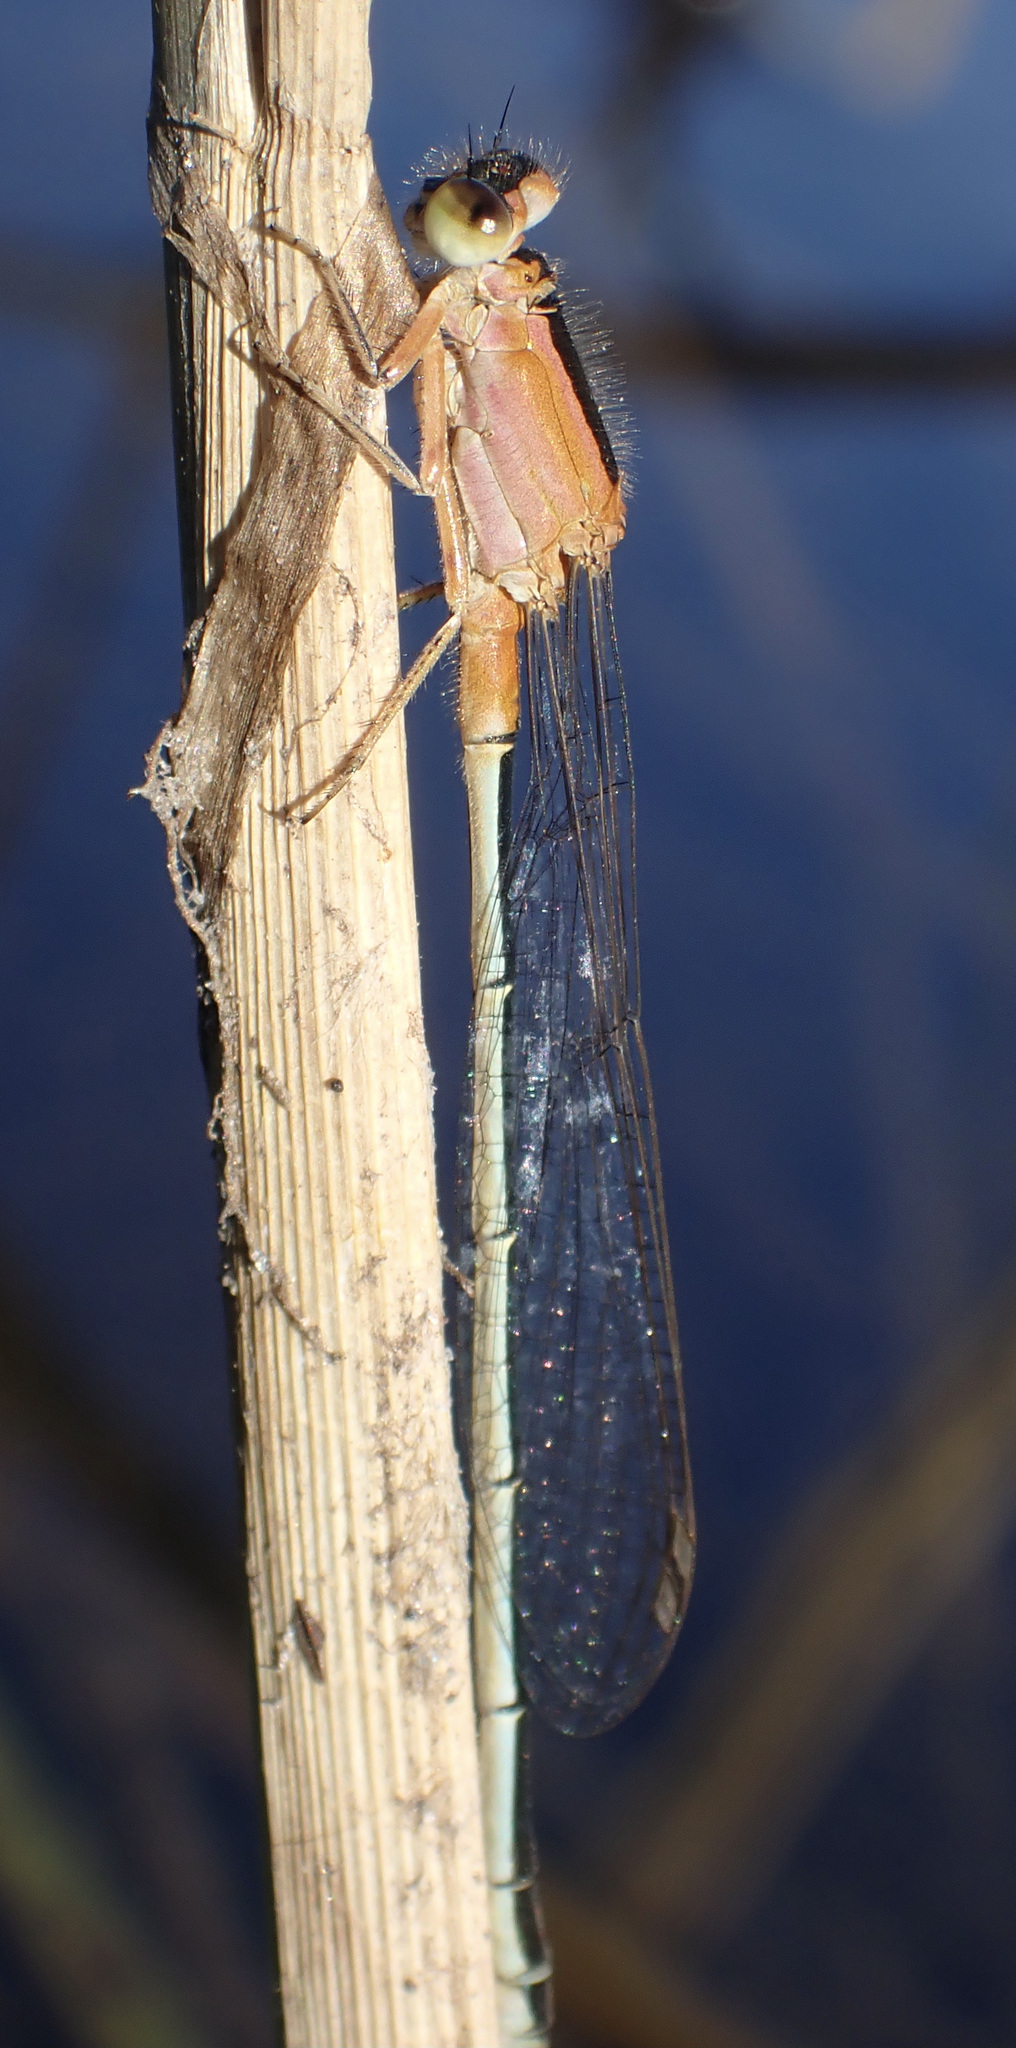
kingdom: Animalia
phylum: Arthropoda
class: Insecta
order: Odonata
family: Coenagrionidae
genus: Ischnura
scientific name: Ischnura senegalensis
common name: Tropical bluetail
